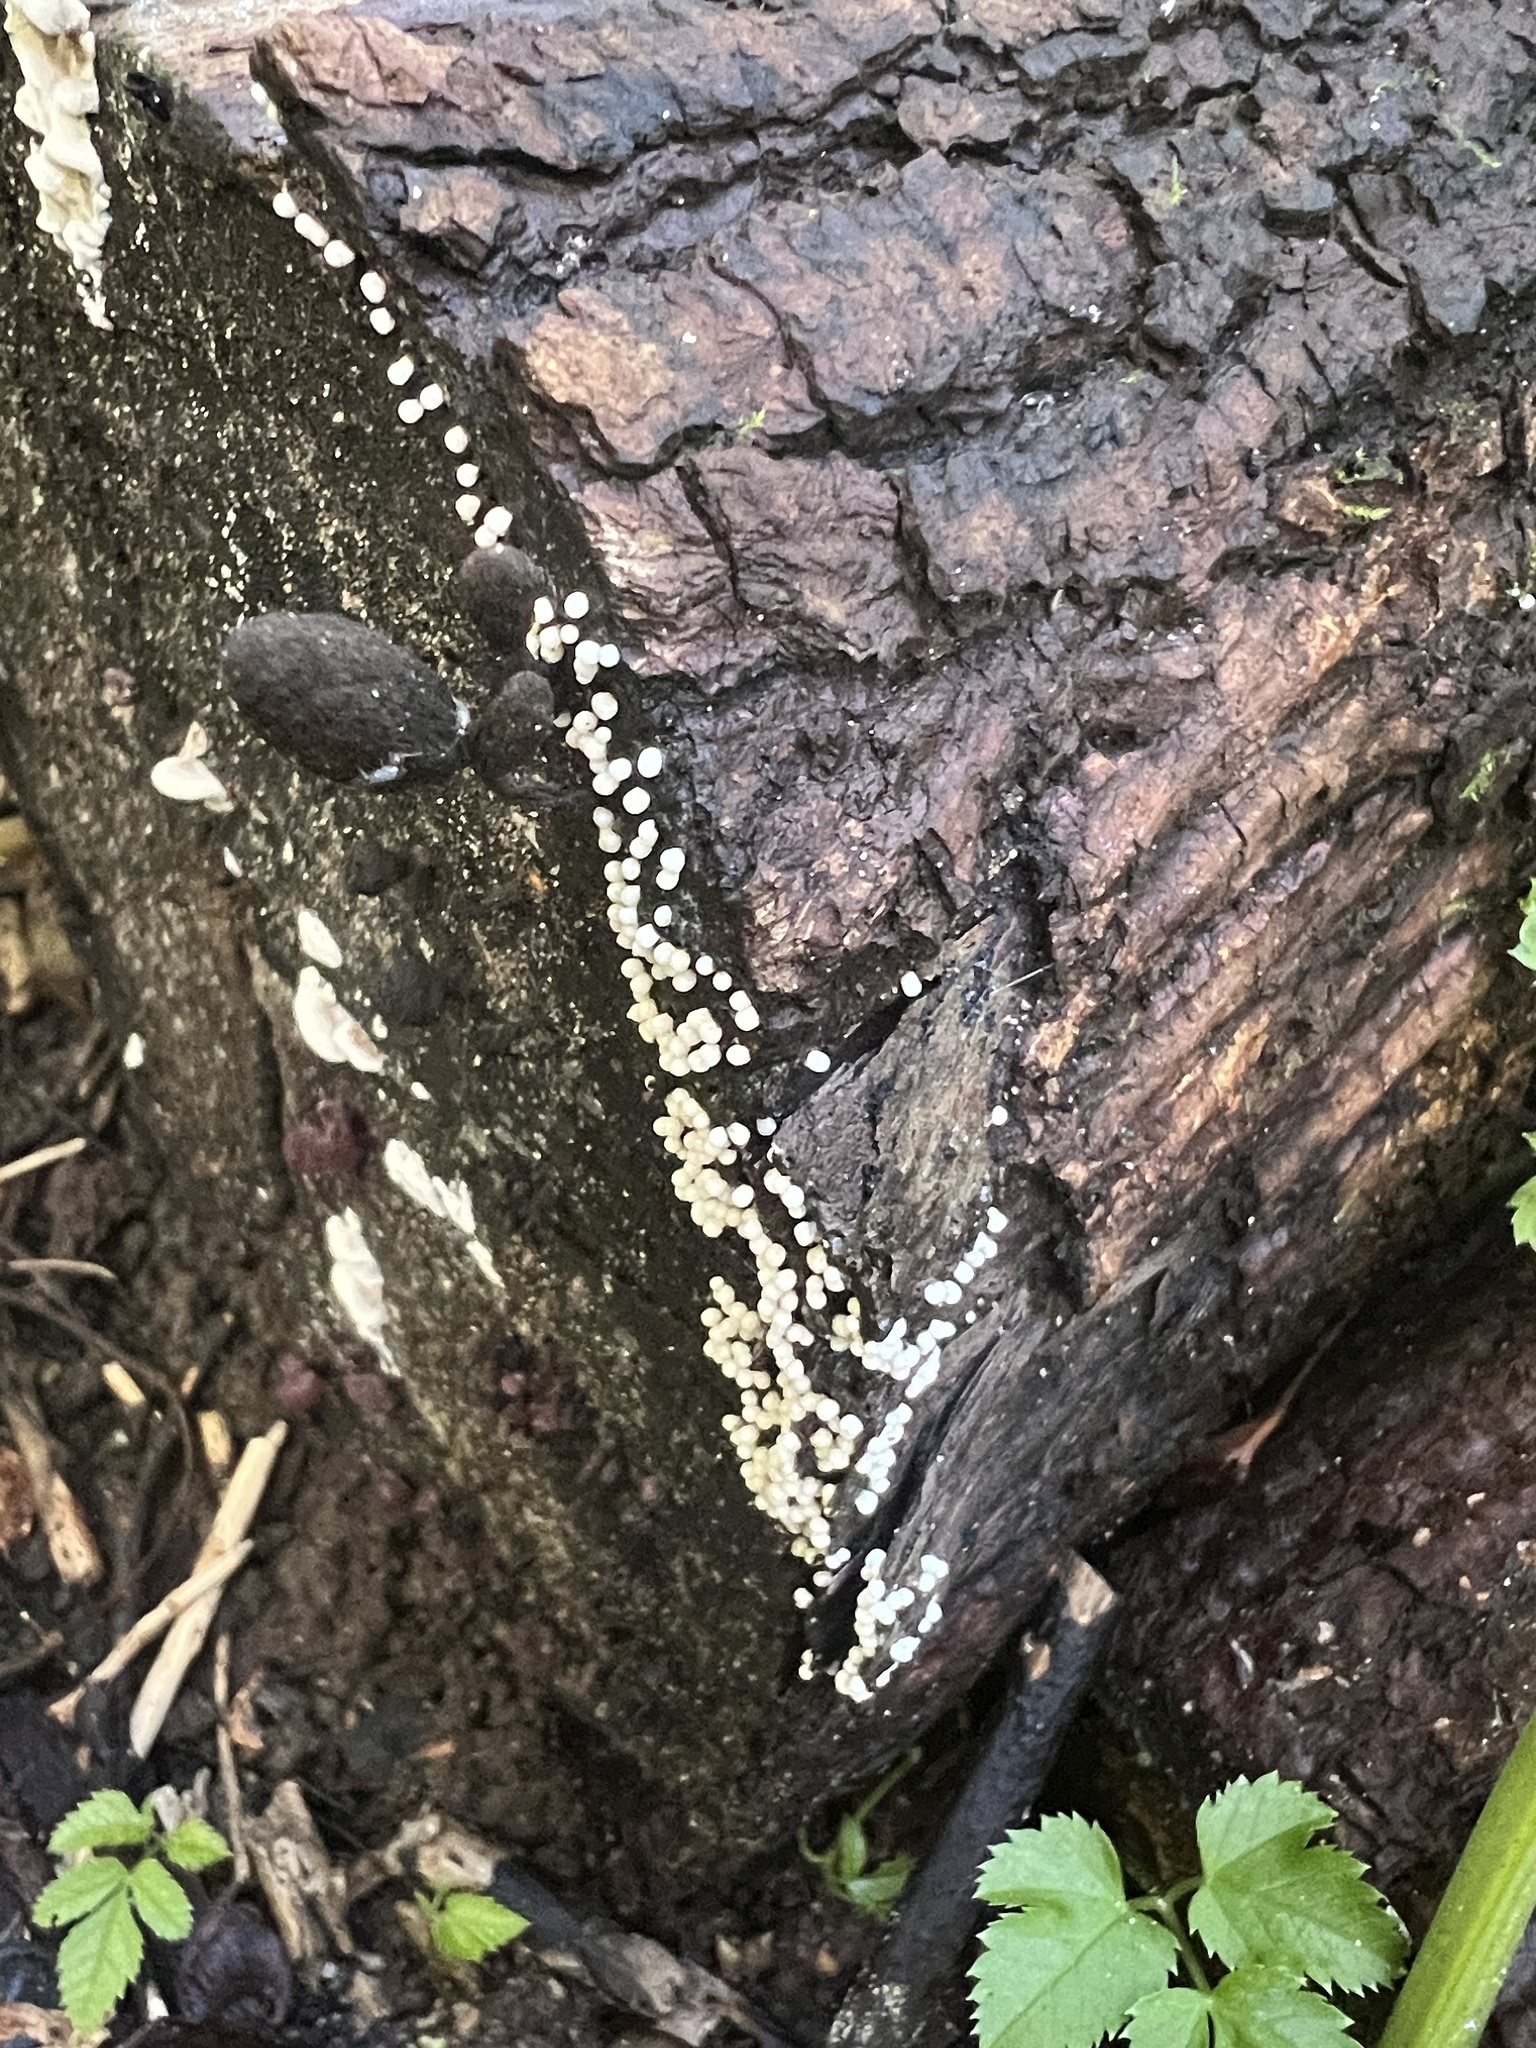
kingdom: Protozoa
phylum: Mycetozoa
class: Myxomycetes
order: Trichiales
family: Trichiaceae
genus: Trichia
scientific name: Trichia varia
